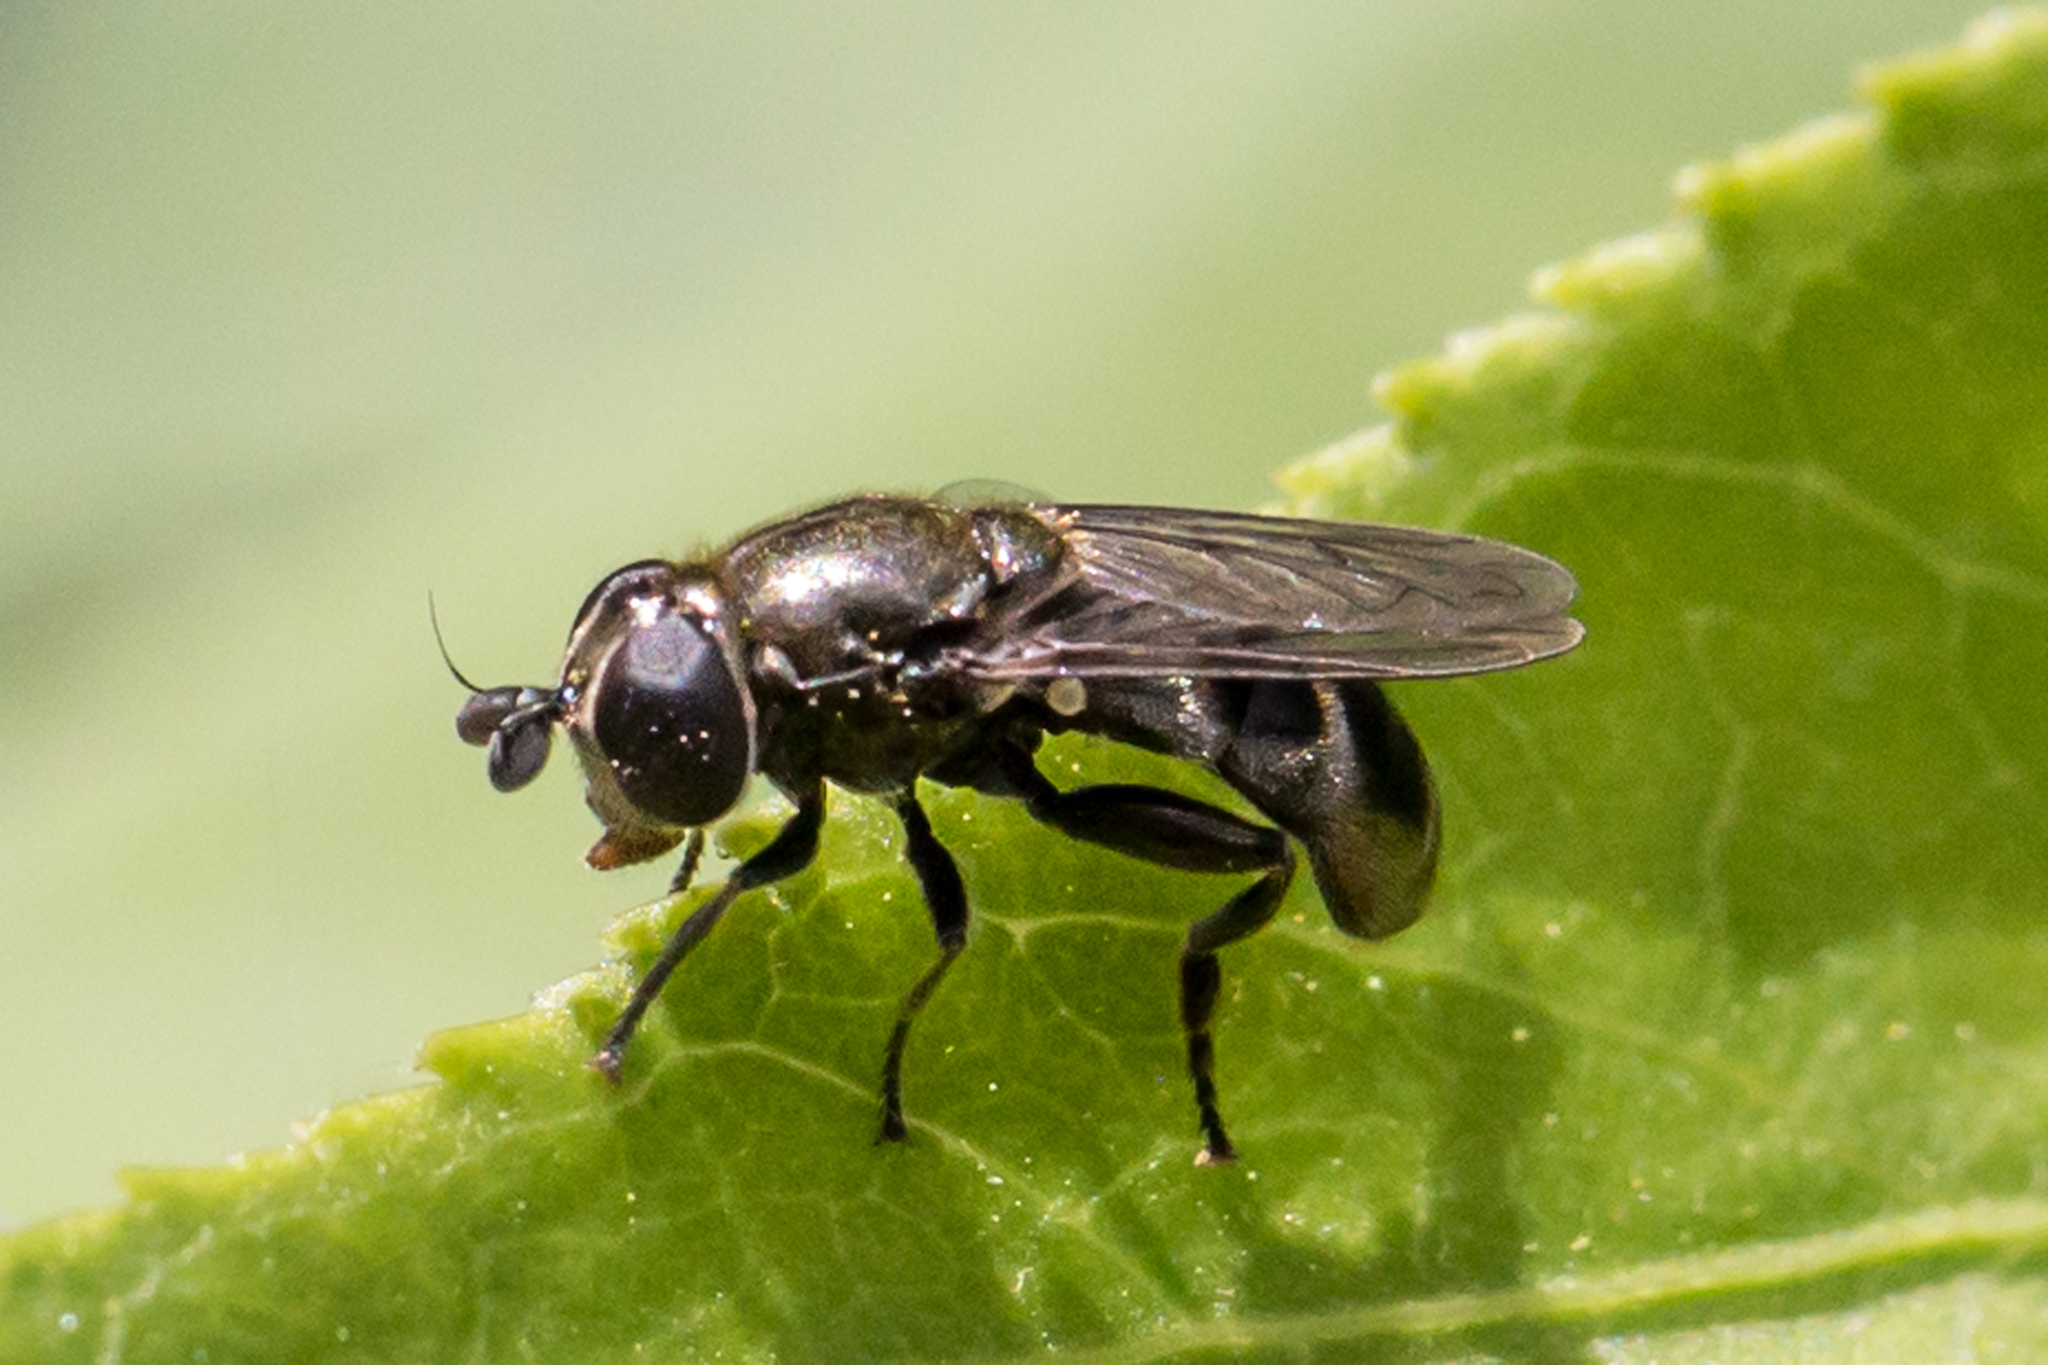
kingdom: Animalia
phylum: Arthropoda
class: Insecta
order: Diptera
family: Syrphidae
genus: Eumerus
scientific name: Eumerus
